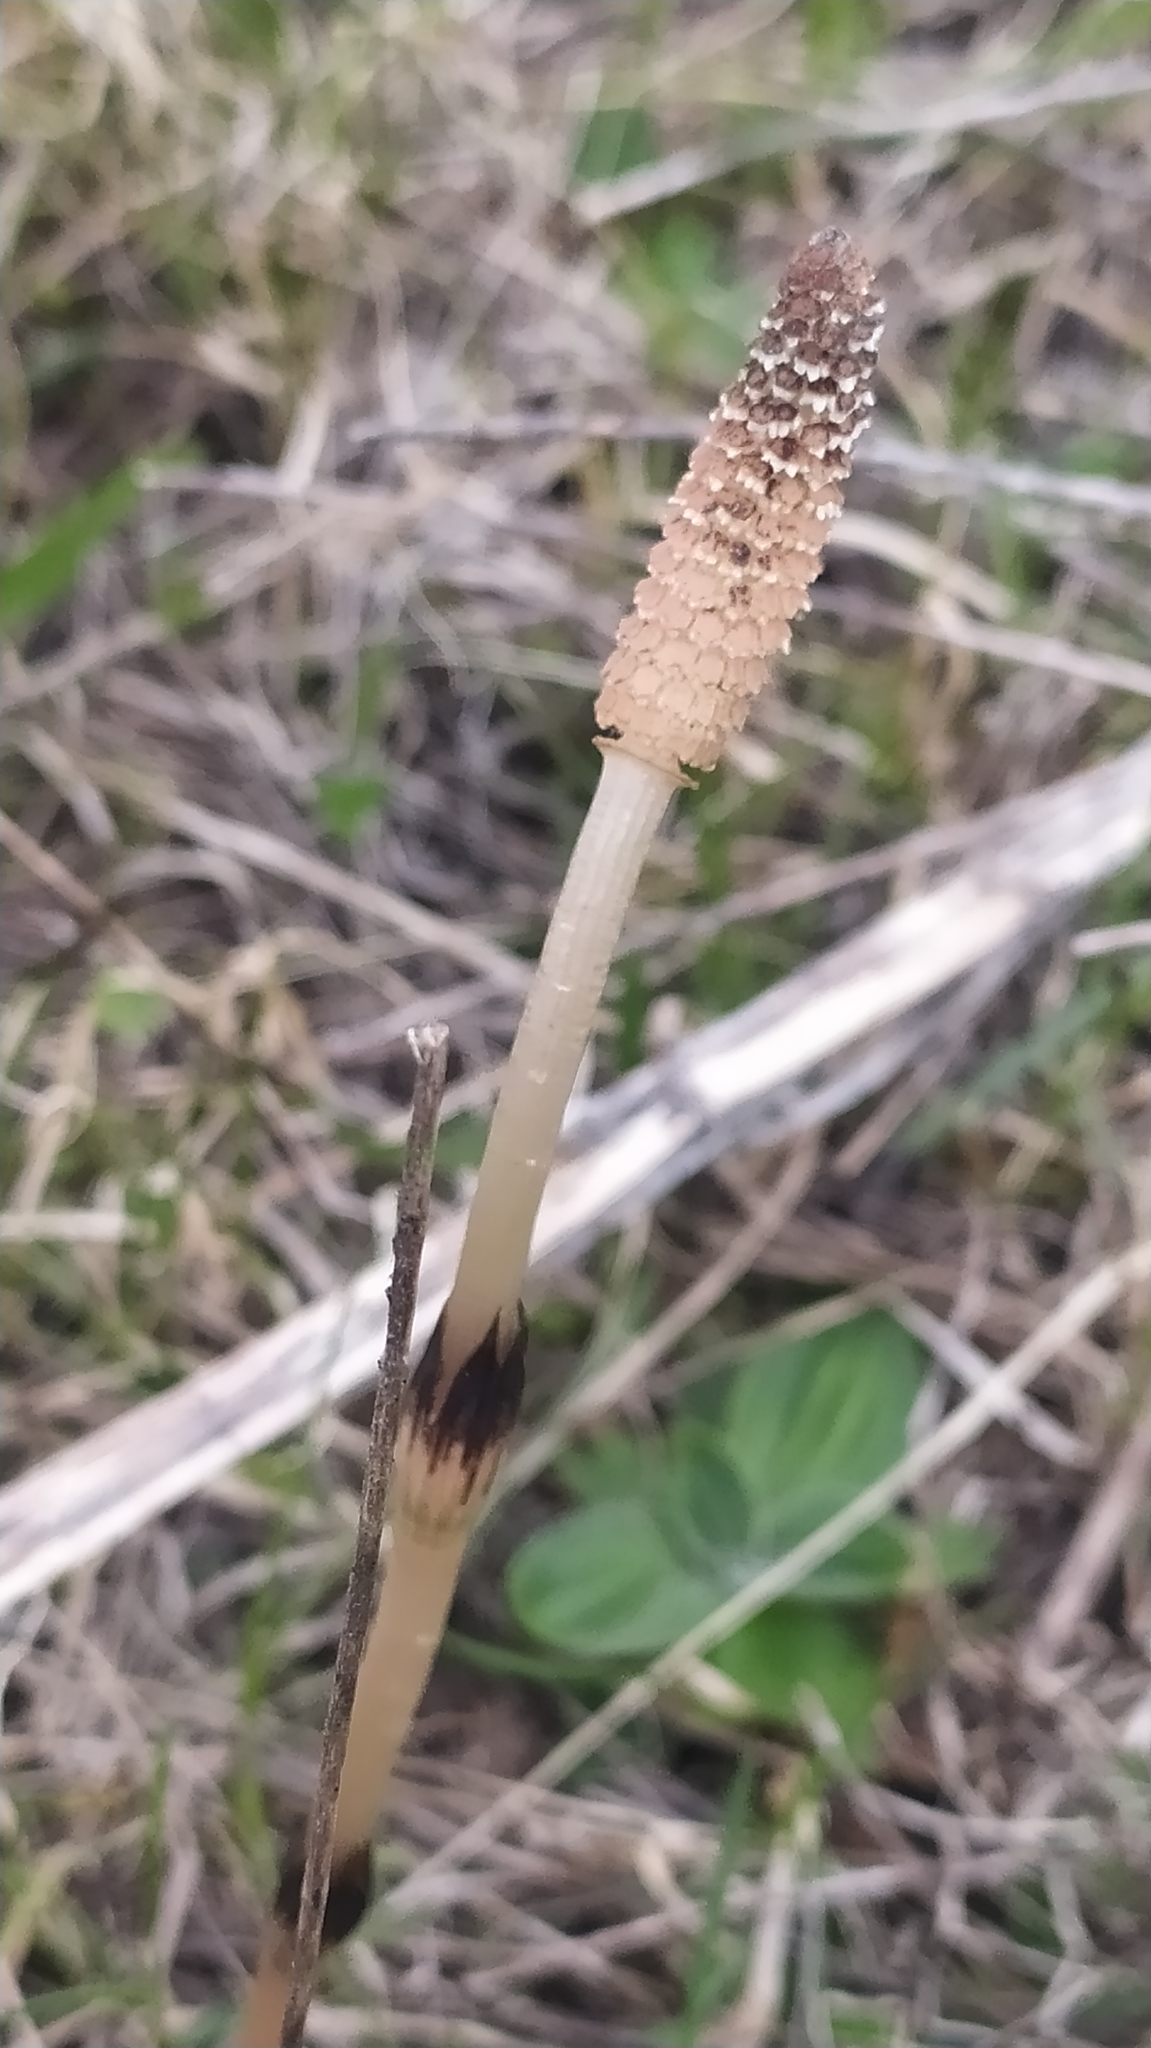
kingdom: Plantae
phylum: Tracheophyta
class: Polypodiopsida
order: Equisetales
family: Equisetaceae
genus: Equisetum
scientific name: Equisetum arvense
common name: Field horsetail
